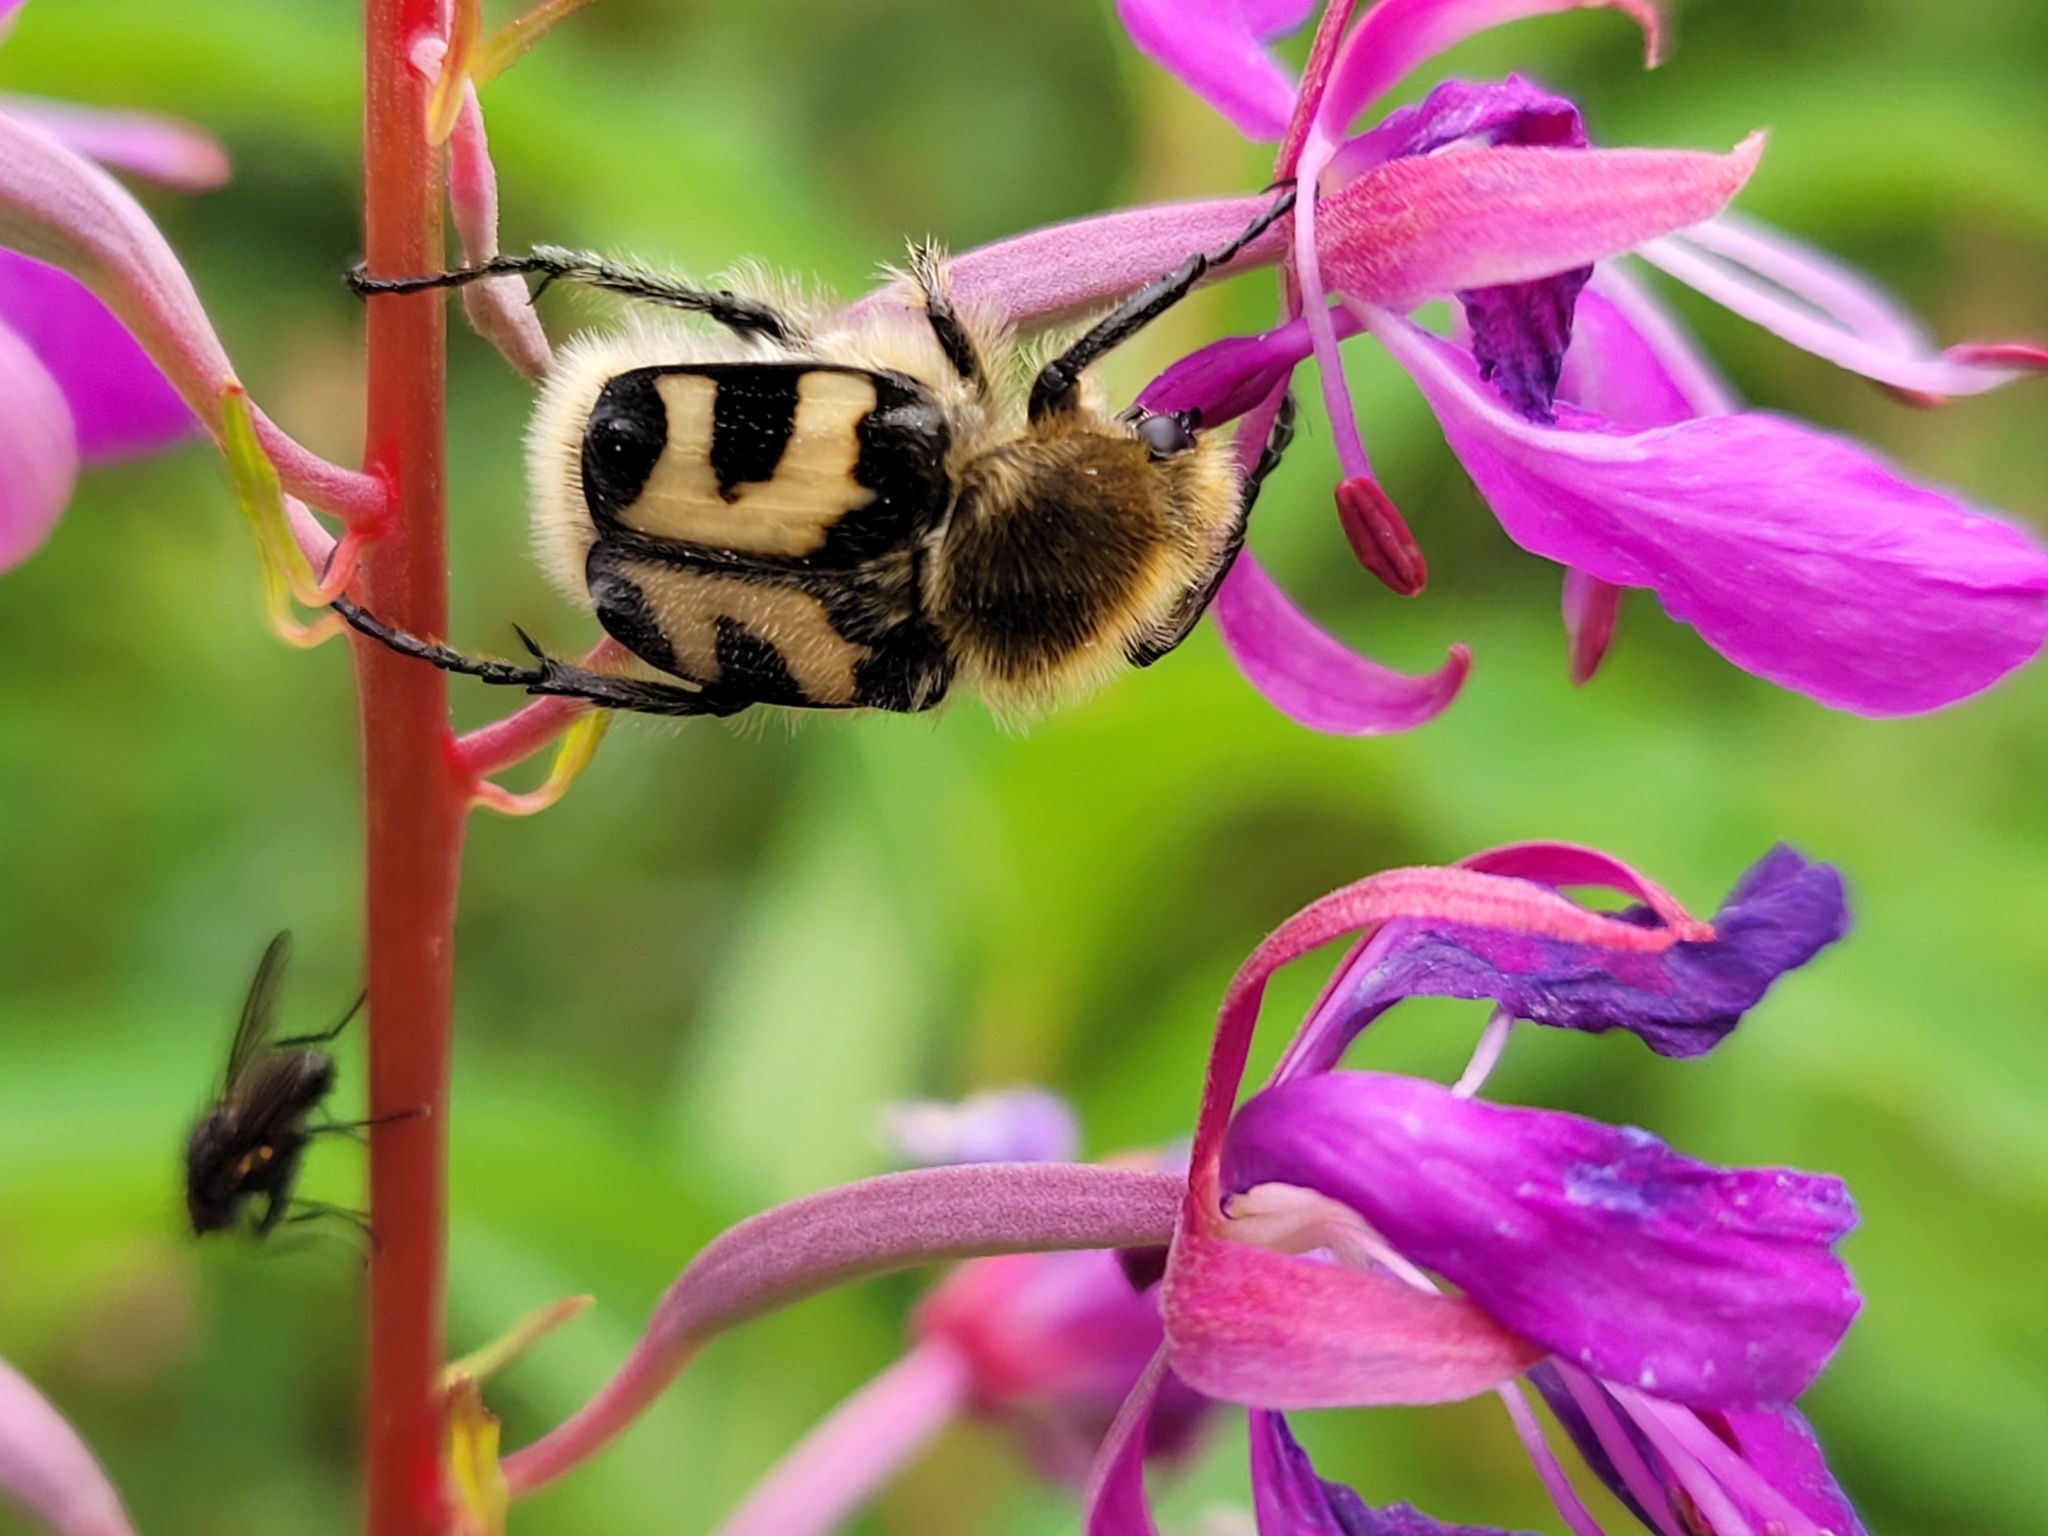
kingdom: Animalia
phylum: Arthropoda
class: Insecta
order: Coleoptera
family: Scarabaeidae
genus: Trichius
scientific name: Trichius fasciatus
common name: Bee beetle
